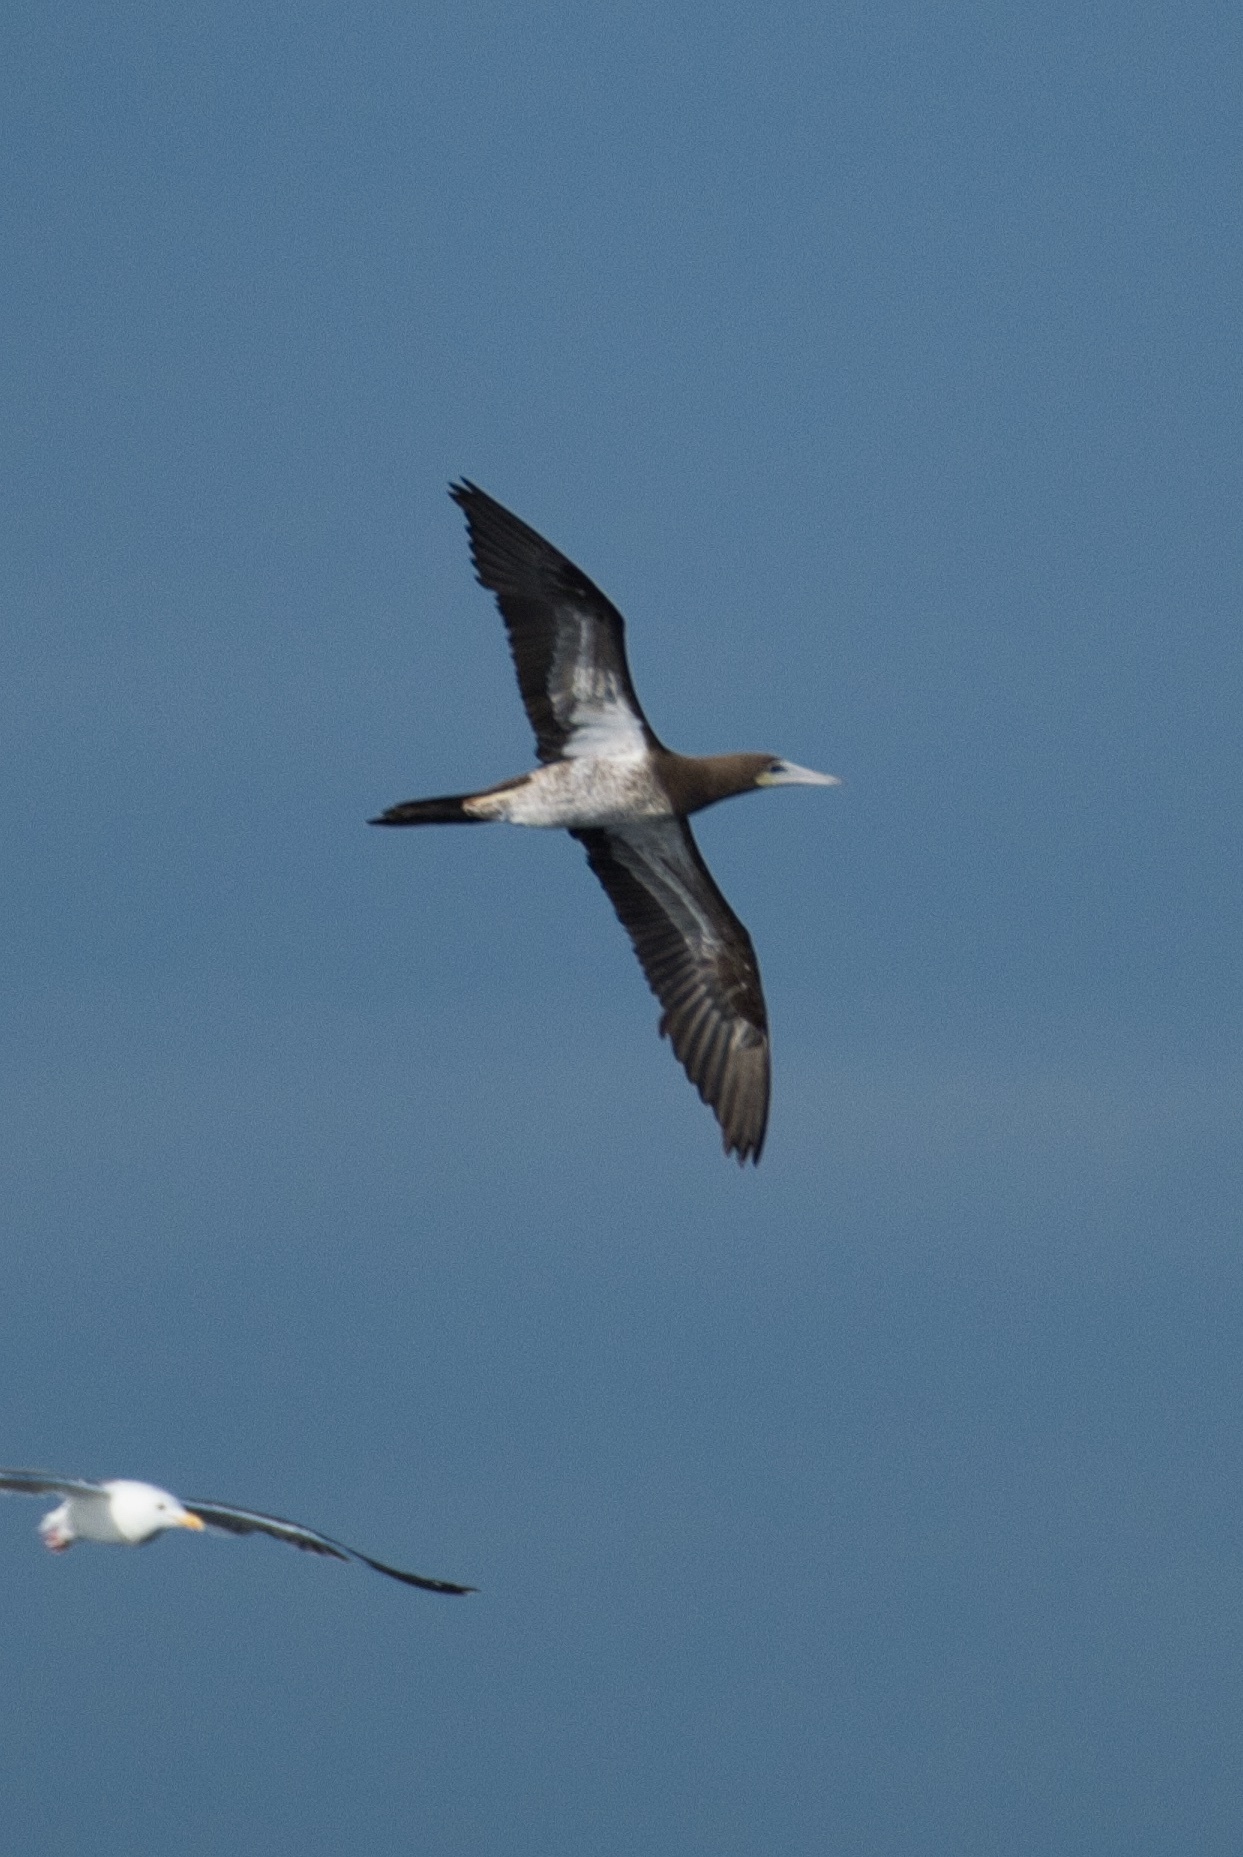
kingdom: Animalia
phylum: Chordata
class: Aves
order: Suliformes
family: Sulidae
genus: Sula
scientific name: Sula leucogaster
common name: Brown booby
